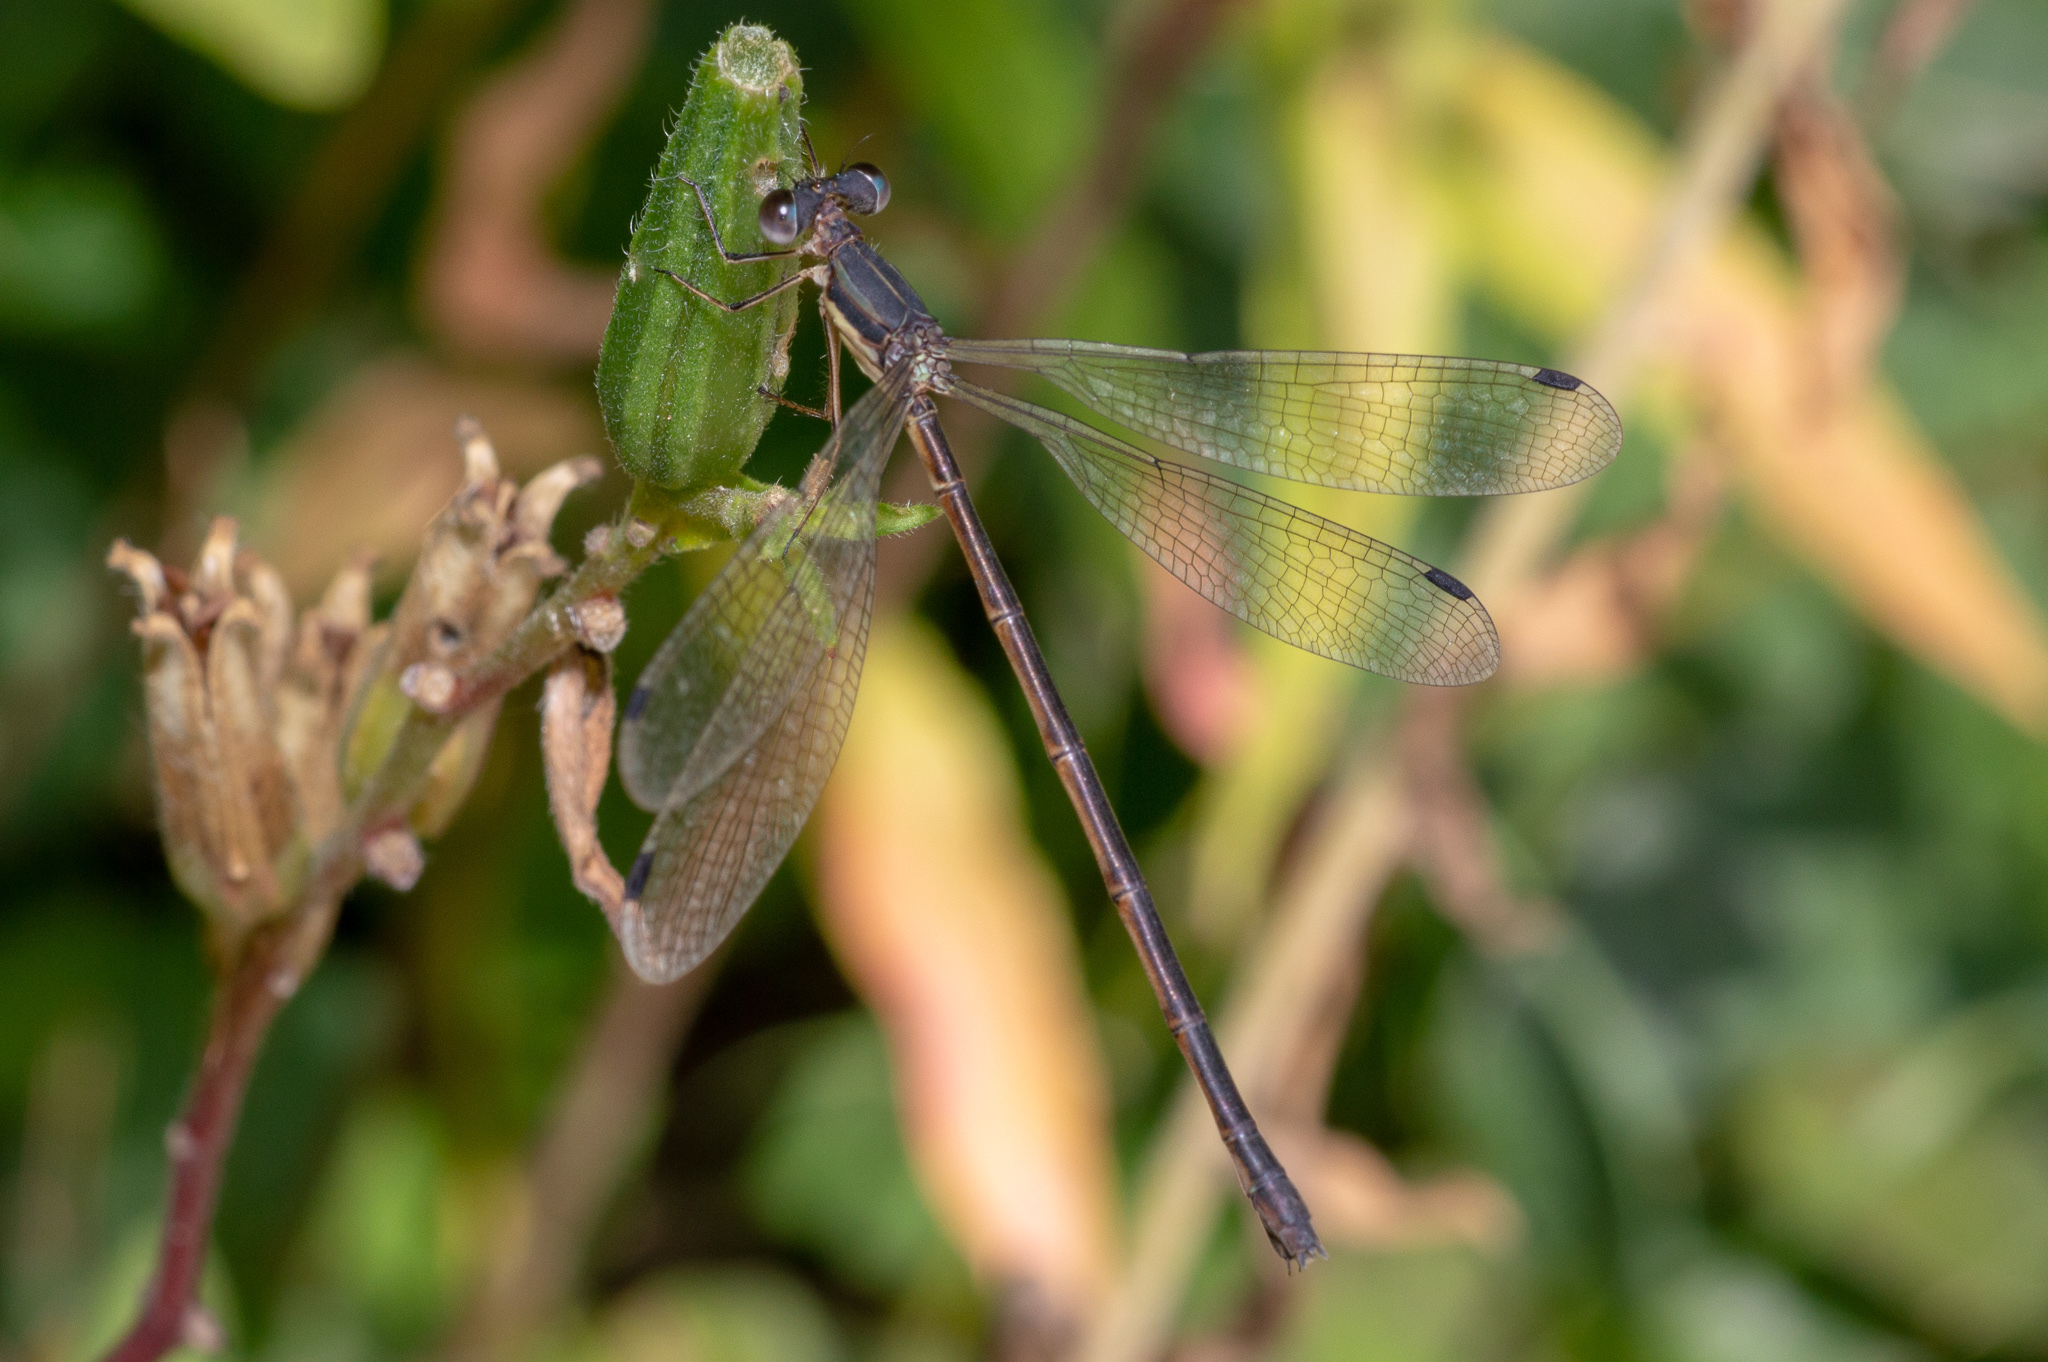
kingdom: Animalia
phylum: Arthropoda
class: Insecta
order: Odonata
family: Lestidae
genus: Lestes
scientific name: Lestes rectangularis
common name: Slender spreadwing
